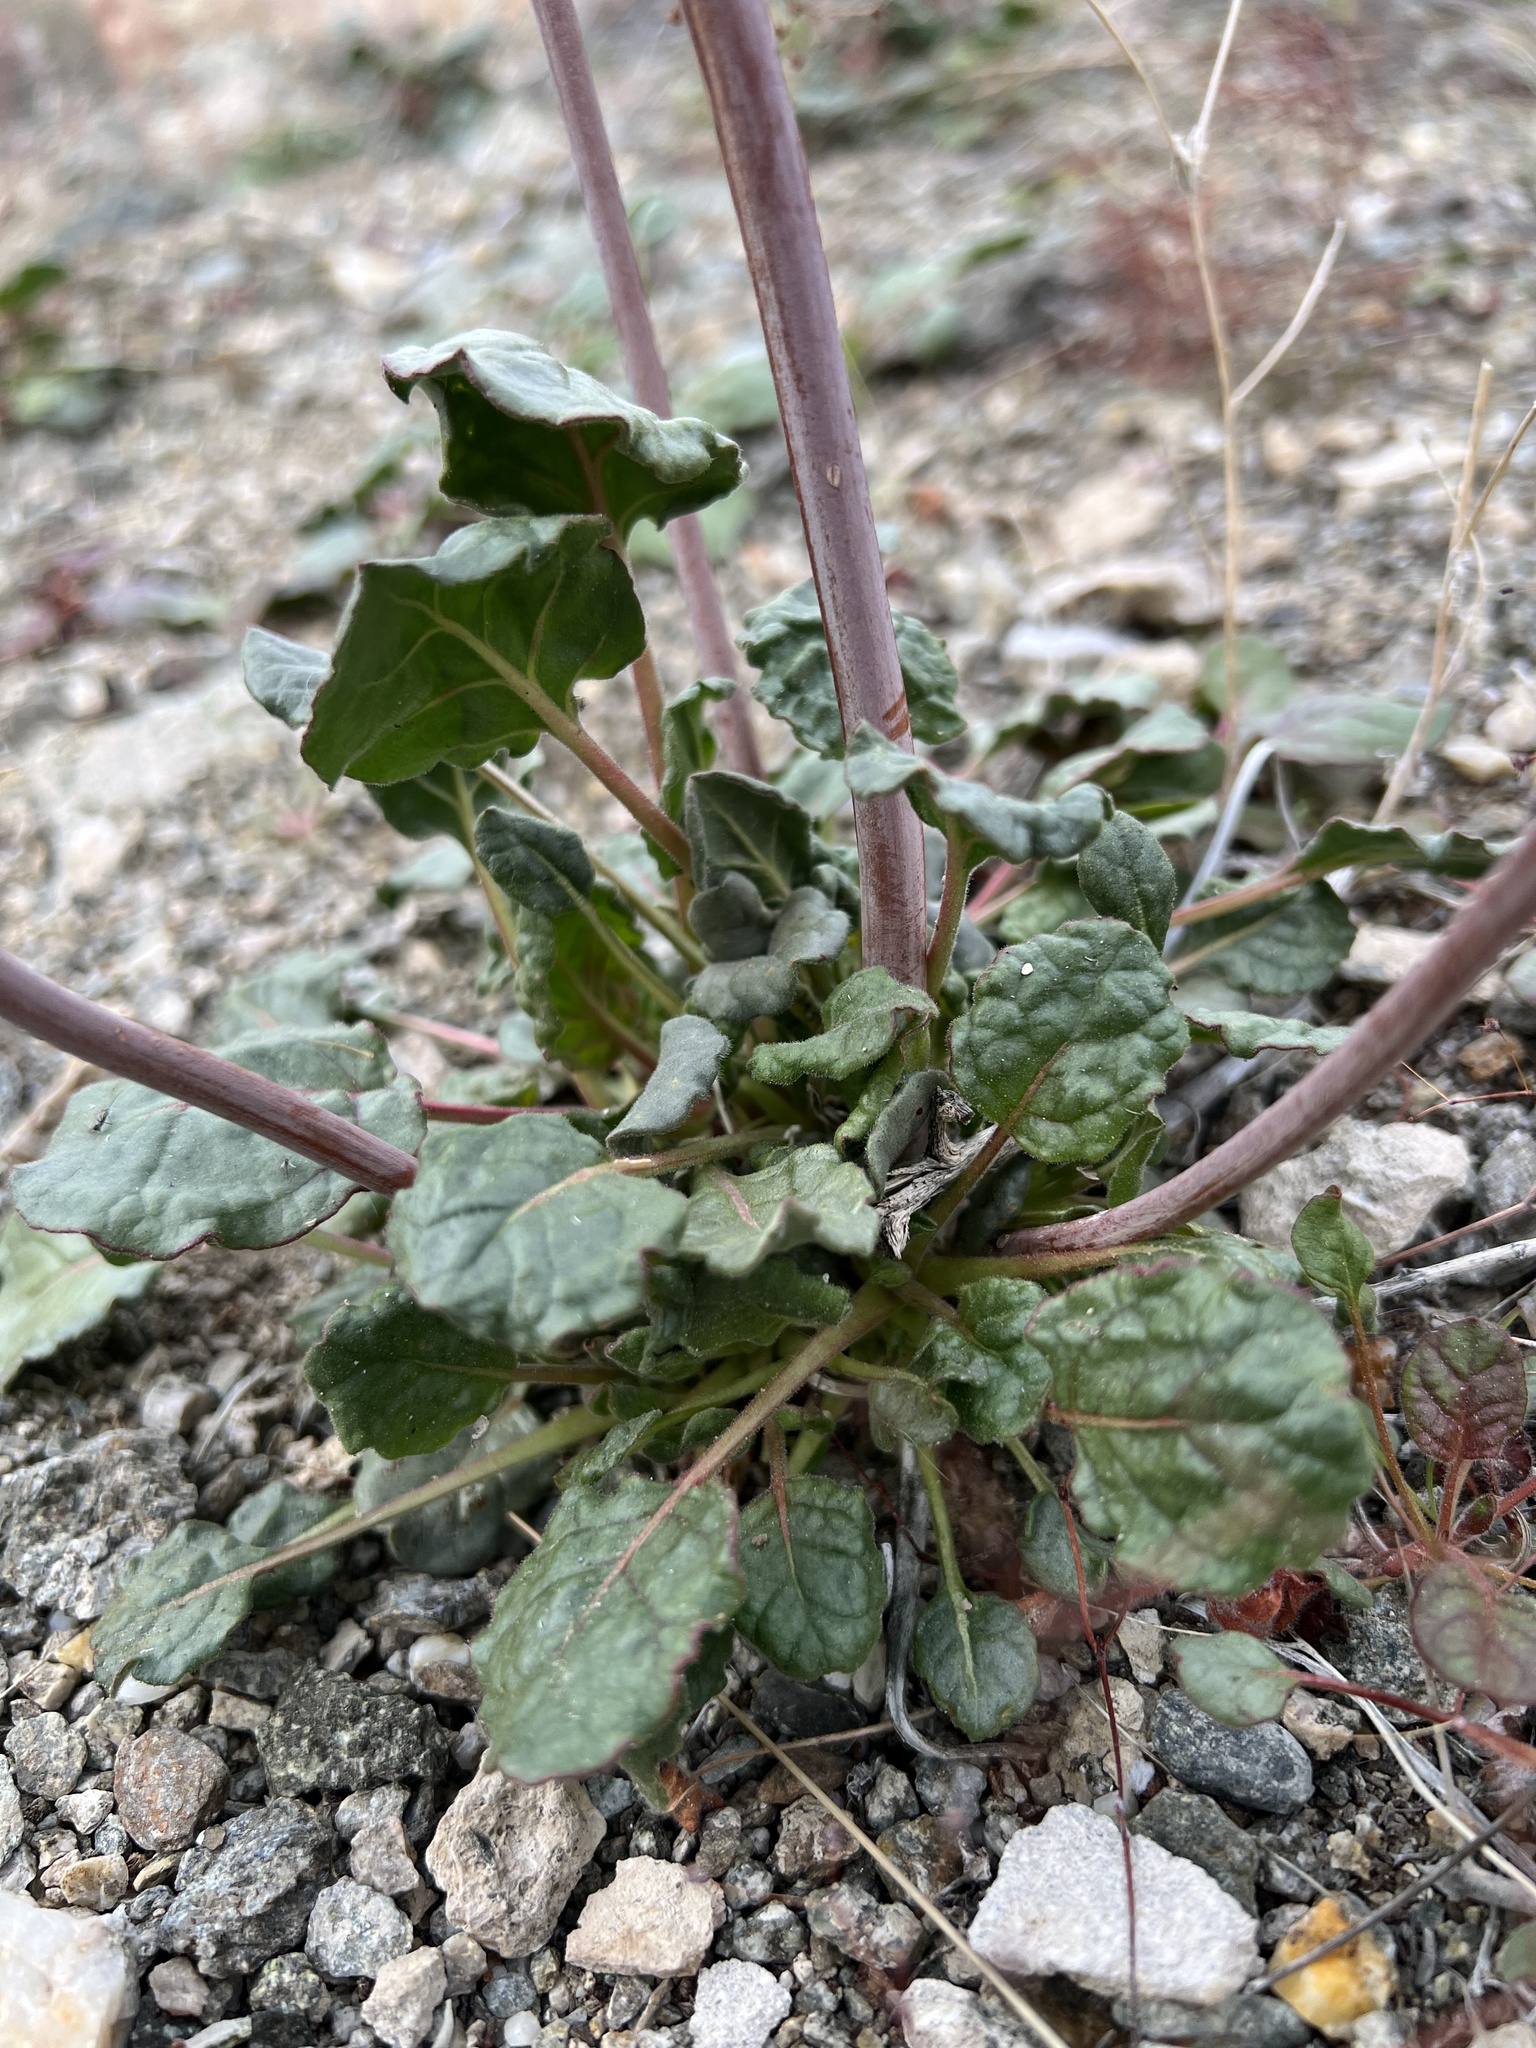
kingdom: Plantae
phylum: Tracheophyta
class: Magnoliopsida
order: Caryophyllales
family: Polygonaceae
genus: Eriogonum
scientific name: Eriogonum inflatum
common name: Desert trumpet
